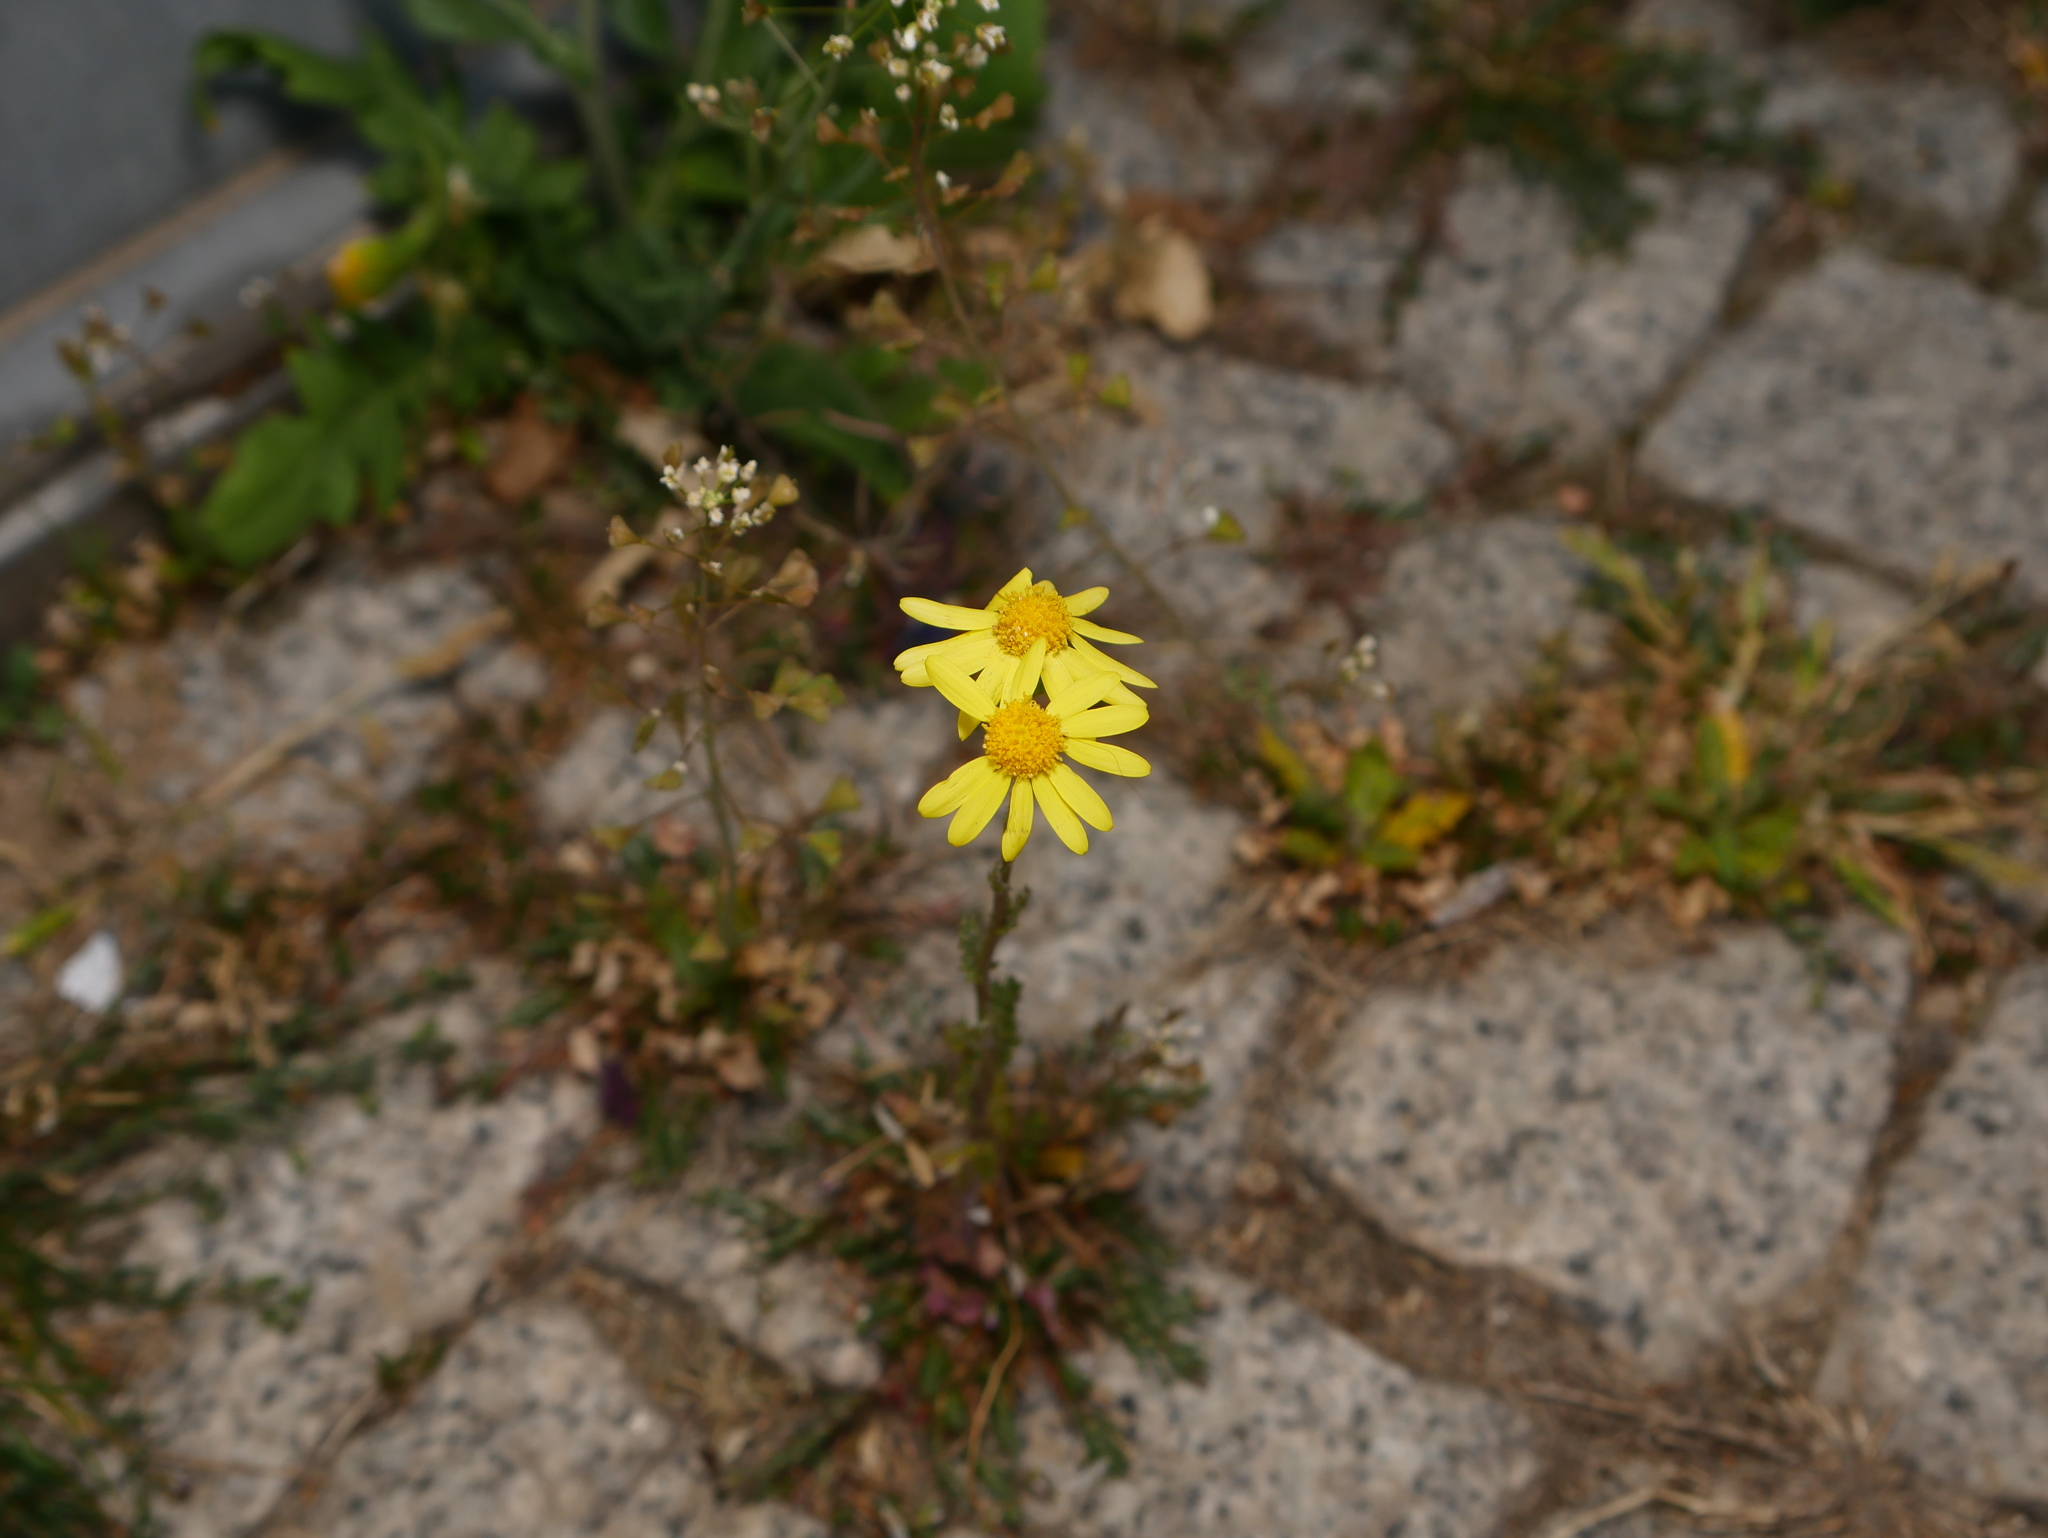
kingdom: Plantae
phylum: Tracheophyta
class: Magnoliopsida
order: Asterales
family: Asteraceae
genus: Senecio
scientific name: Senecio vernalis
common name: Eastern groundsel
